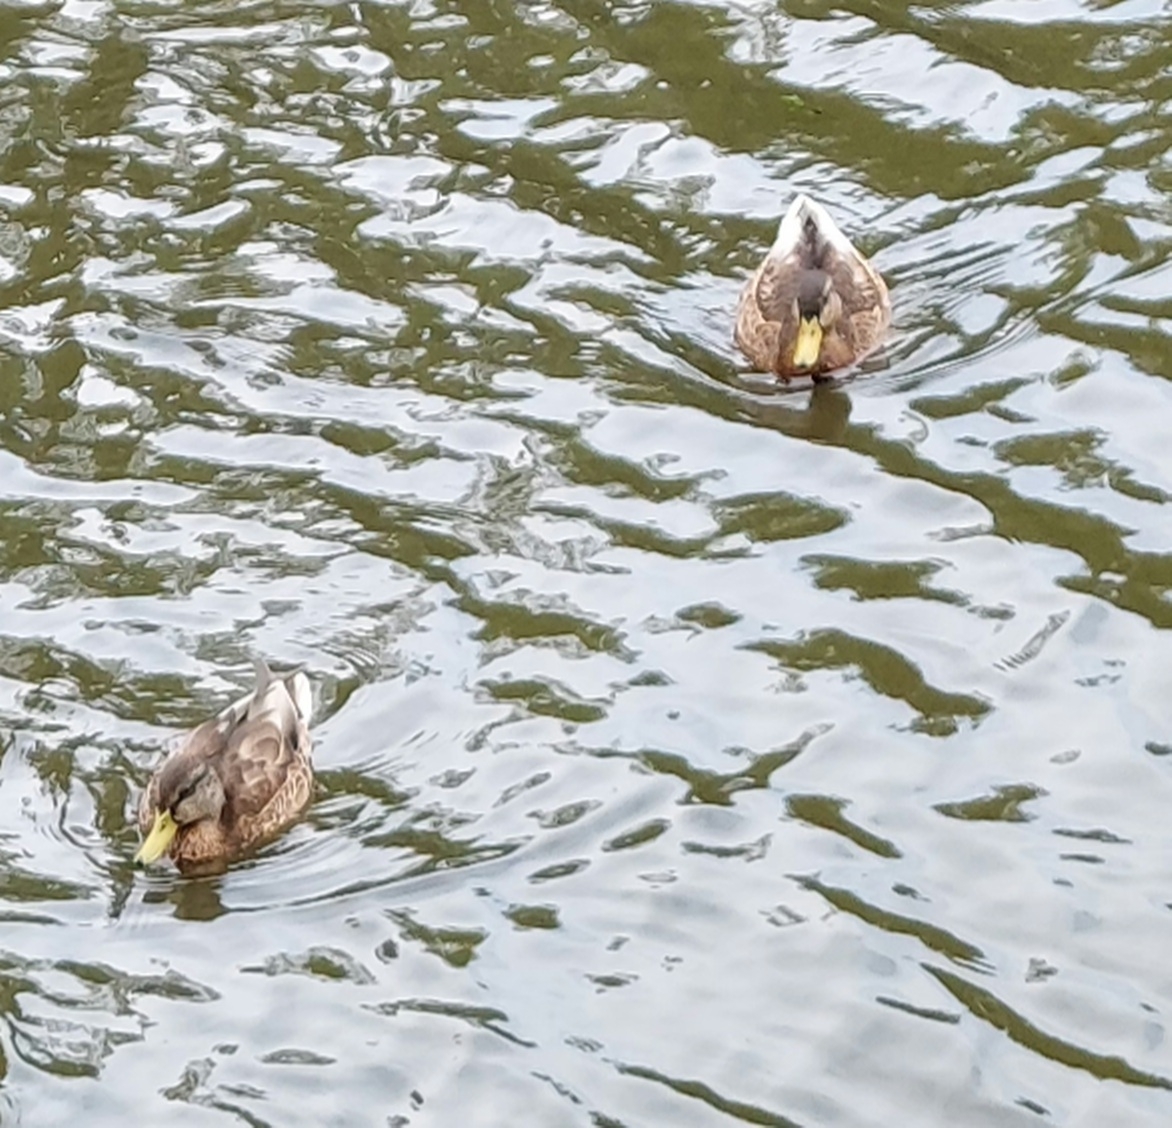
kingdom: Animalia
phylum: Chordata
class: Aves
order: Anseriformes
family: Anatidae
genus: Anas
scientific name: Anas platyrhynchos
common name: Mallard
